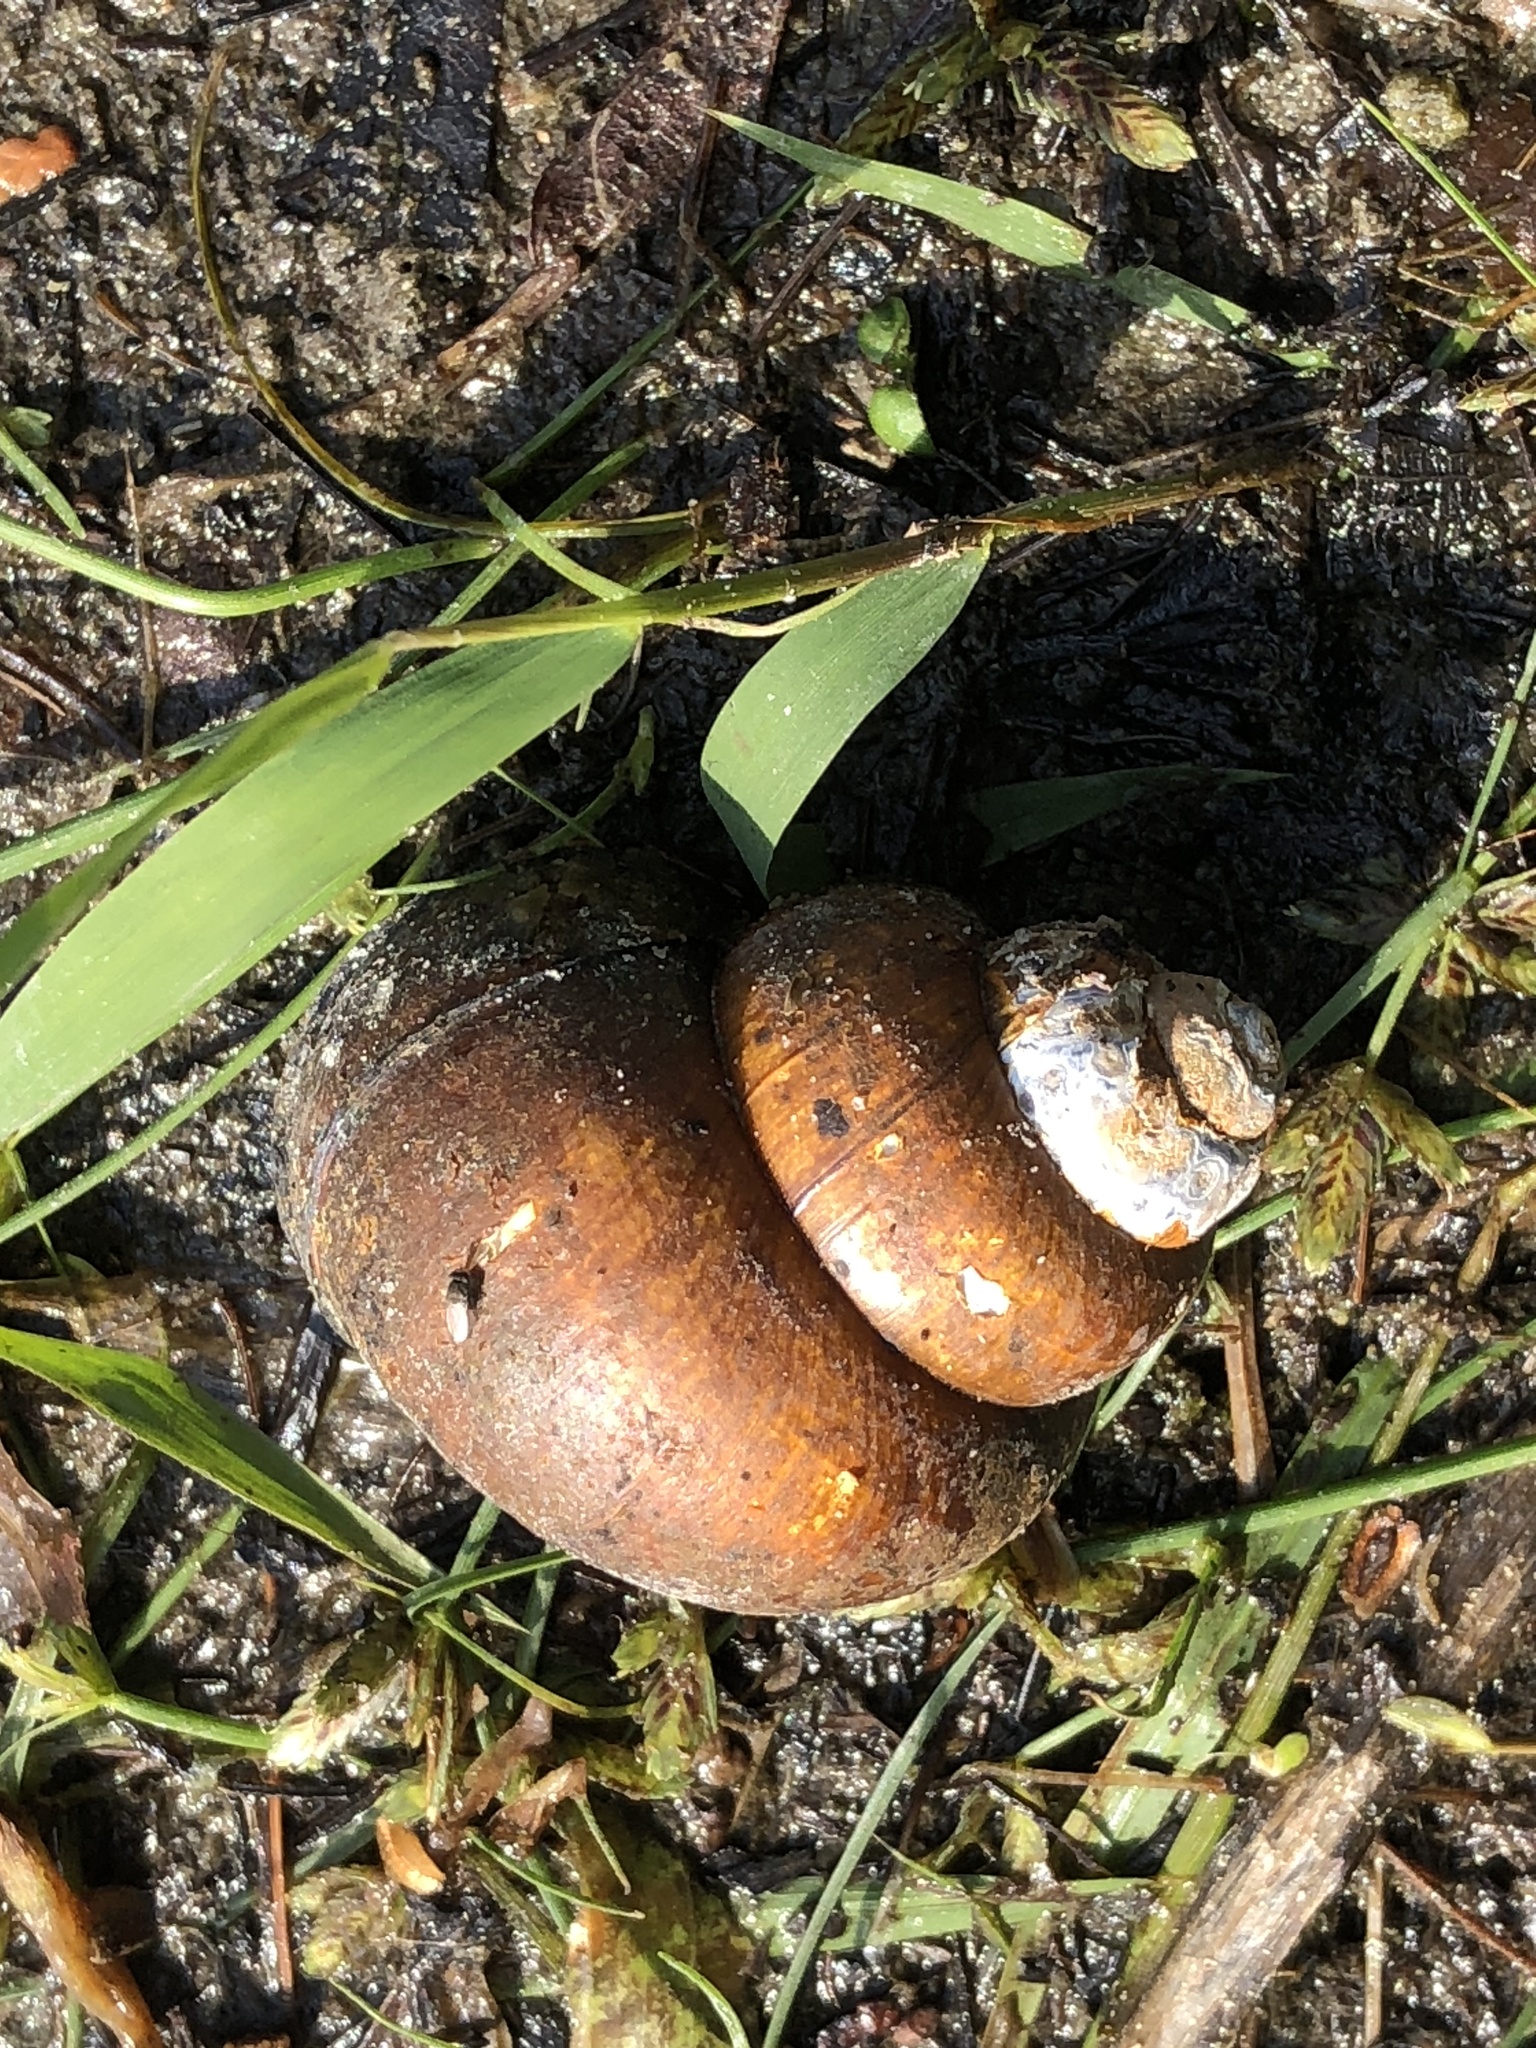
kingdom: Animalia
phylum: Mollusca
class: Gastropoda
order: Architaenioglossa
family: Viviparidae
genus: Cipangopaludina
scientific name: Cipangopaludina chinensis
